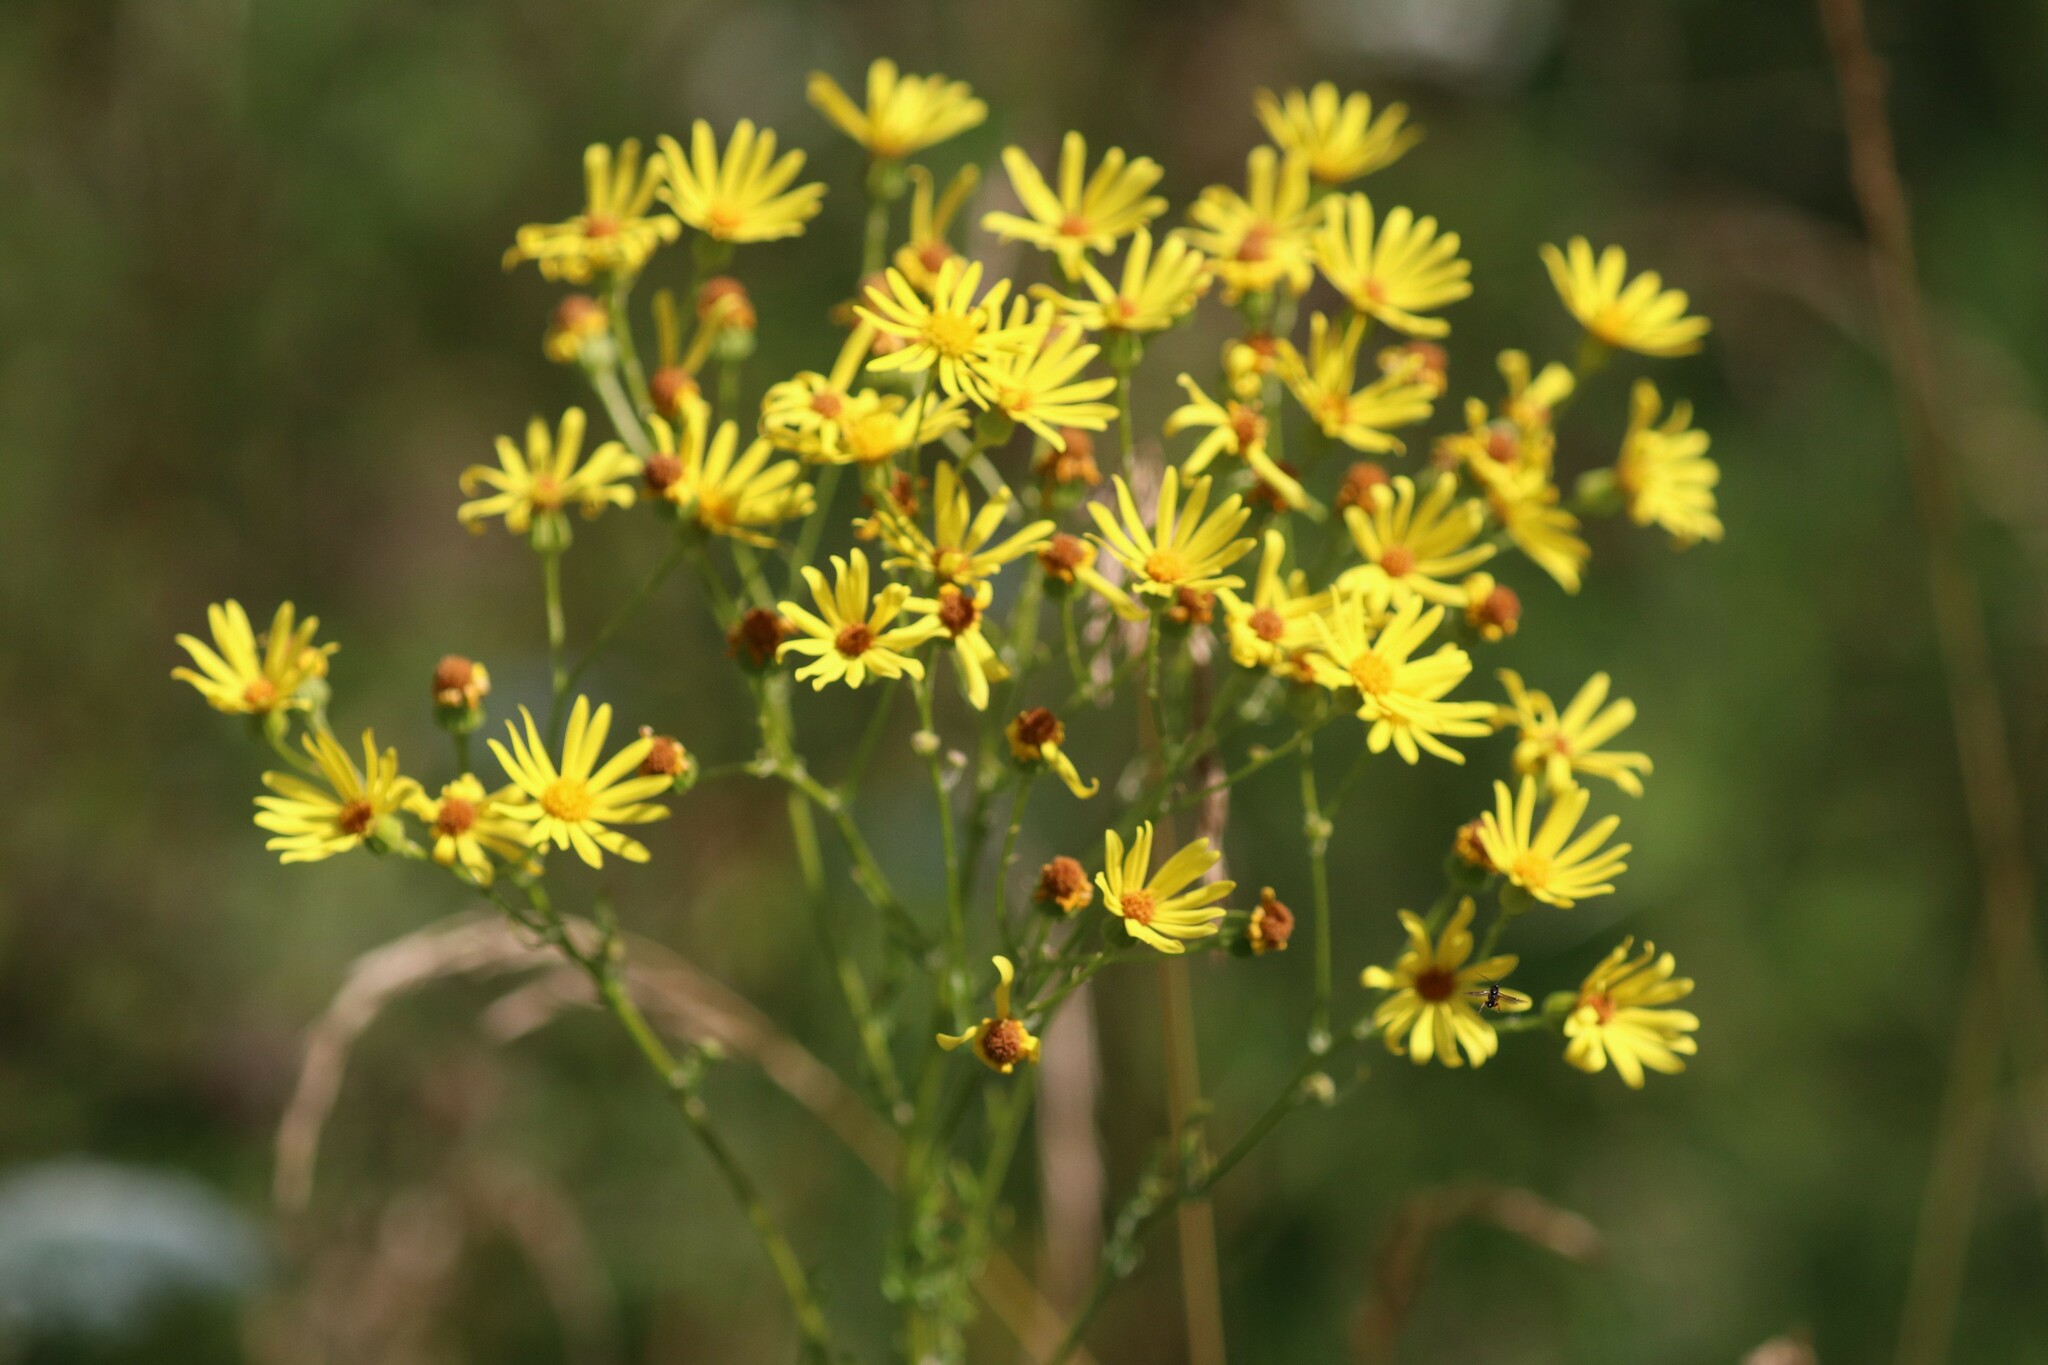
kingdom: Plantae
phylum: Tracheophyta
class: Magnoliopsida
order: Asterales
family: Asteraceae
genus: Jacobaea
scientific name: Jacobaea vulgaris
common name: Stinking willie
